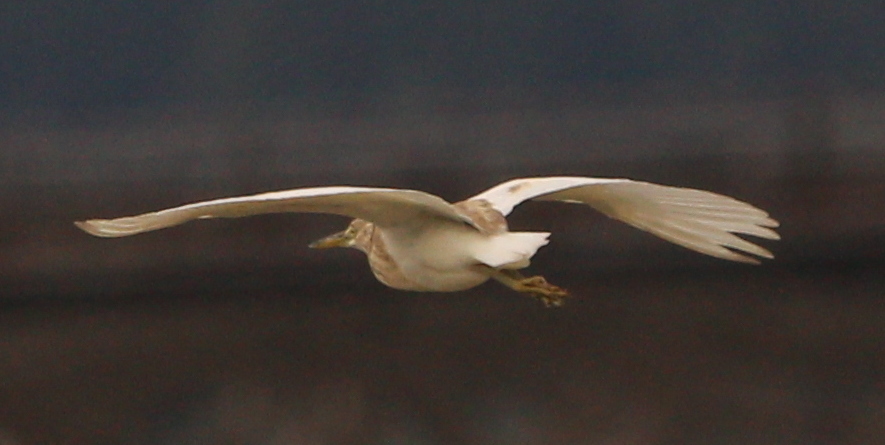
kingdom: Animalia
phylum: Chordata
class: Aves
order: Pelecaniformes
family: Ardeidae
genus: Ardeola
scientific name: Ardeola ralloides
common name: Squacco heron
